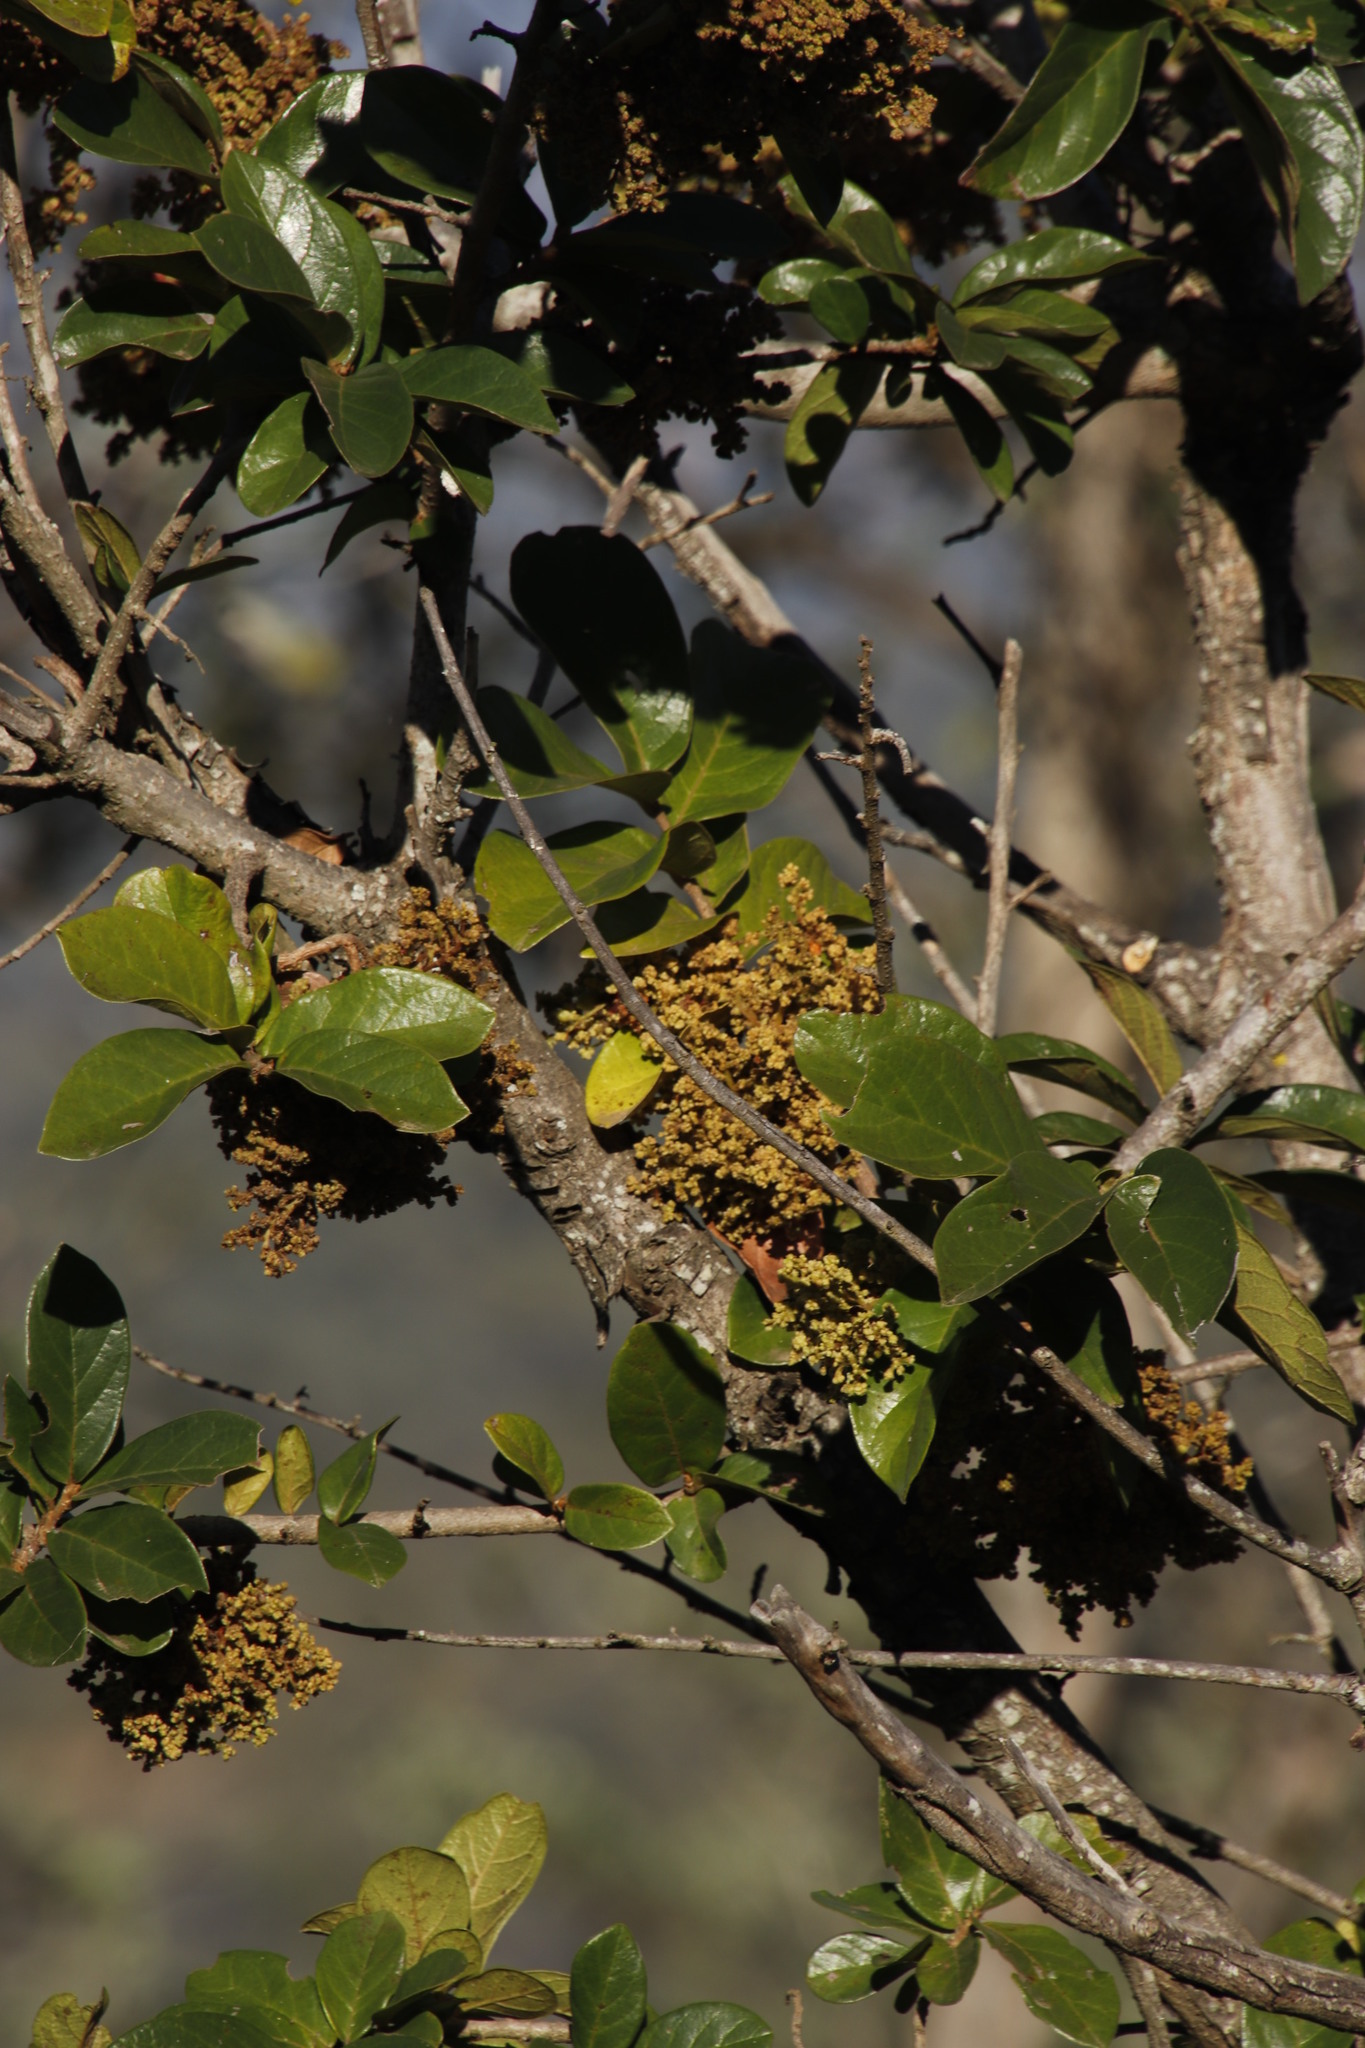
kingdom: Animalia
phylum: Arthropoda
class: Arachnida
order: Trombidiformes
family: Eriophyidae
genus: Colomerus
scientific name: Colomerus
